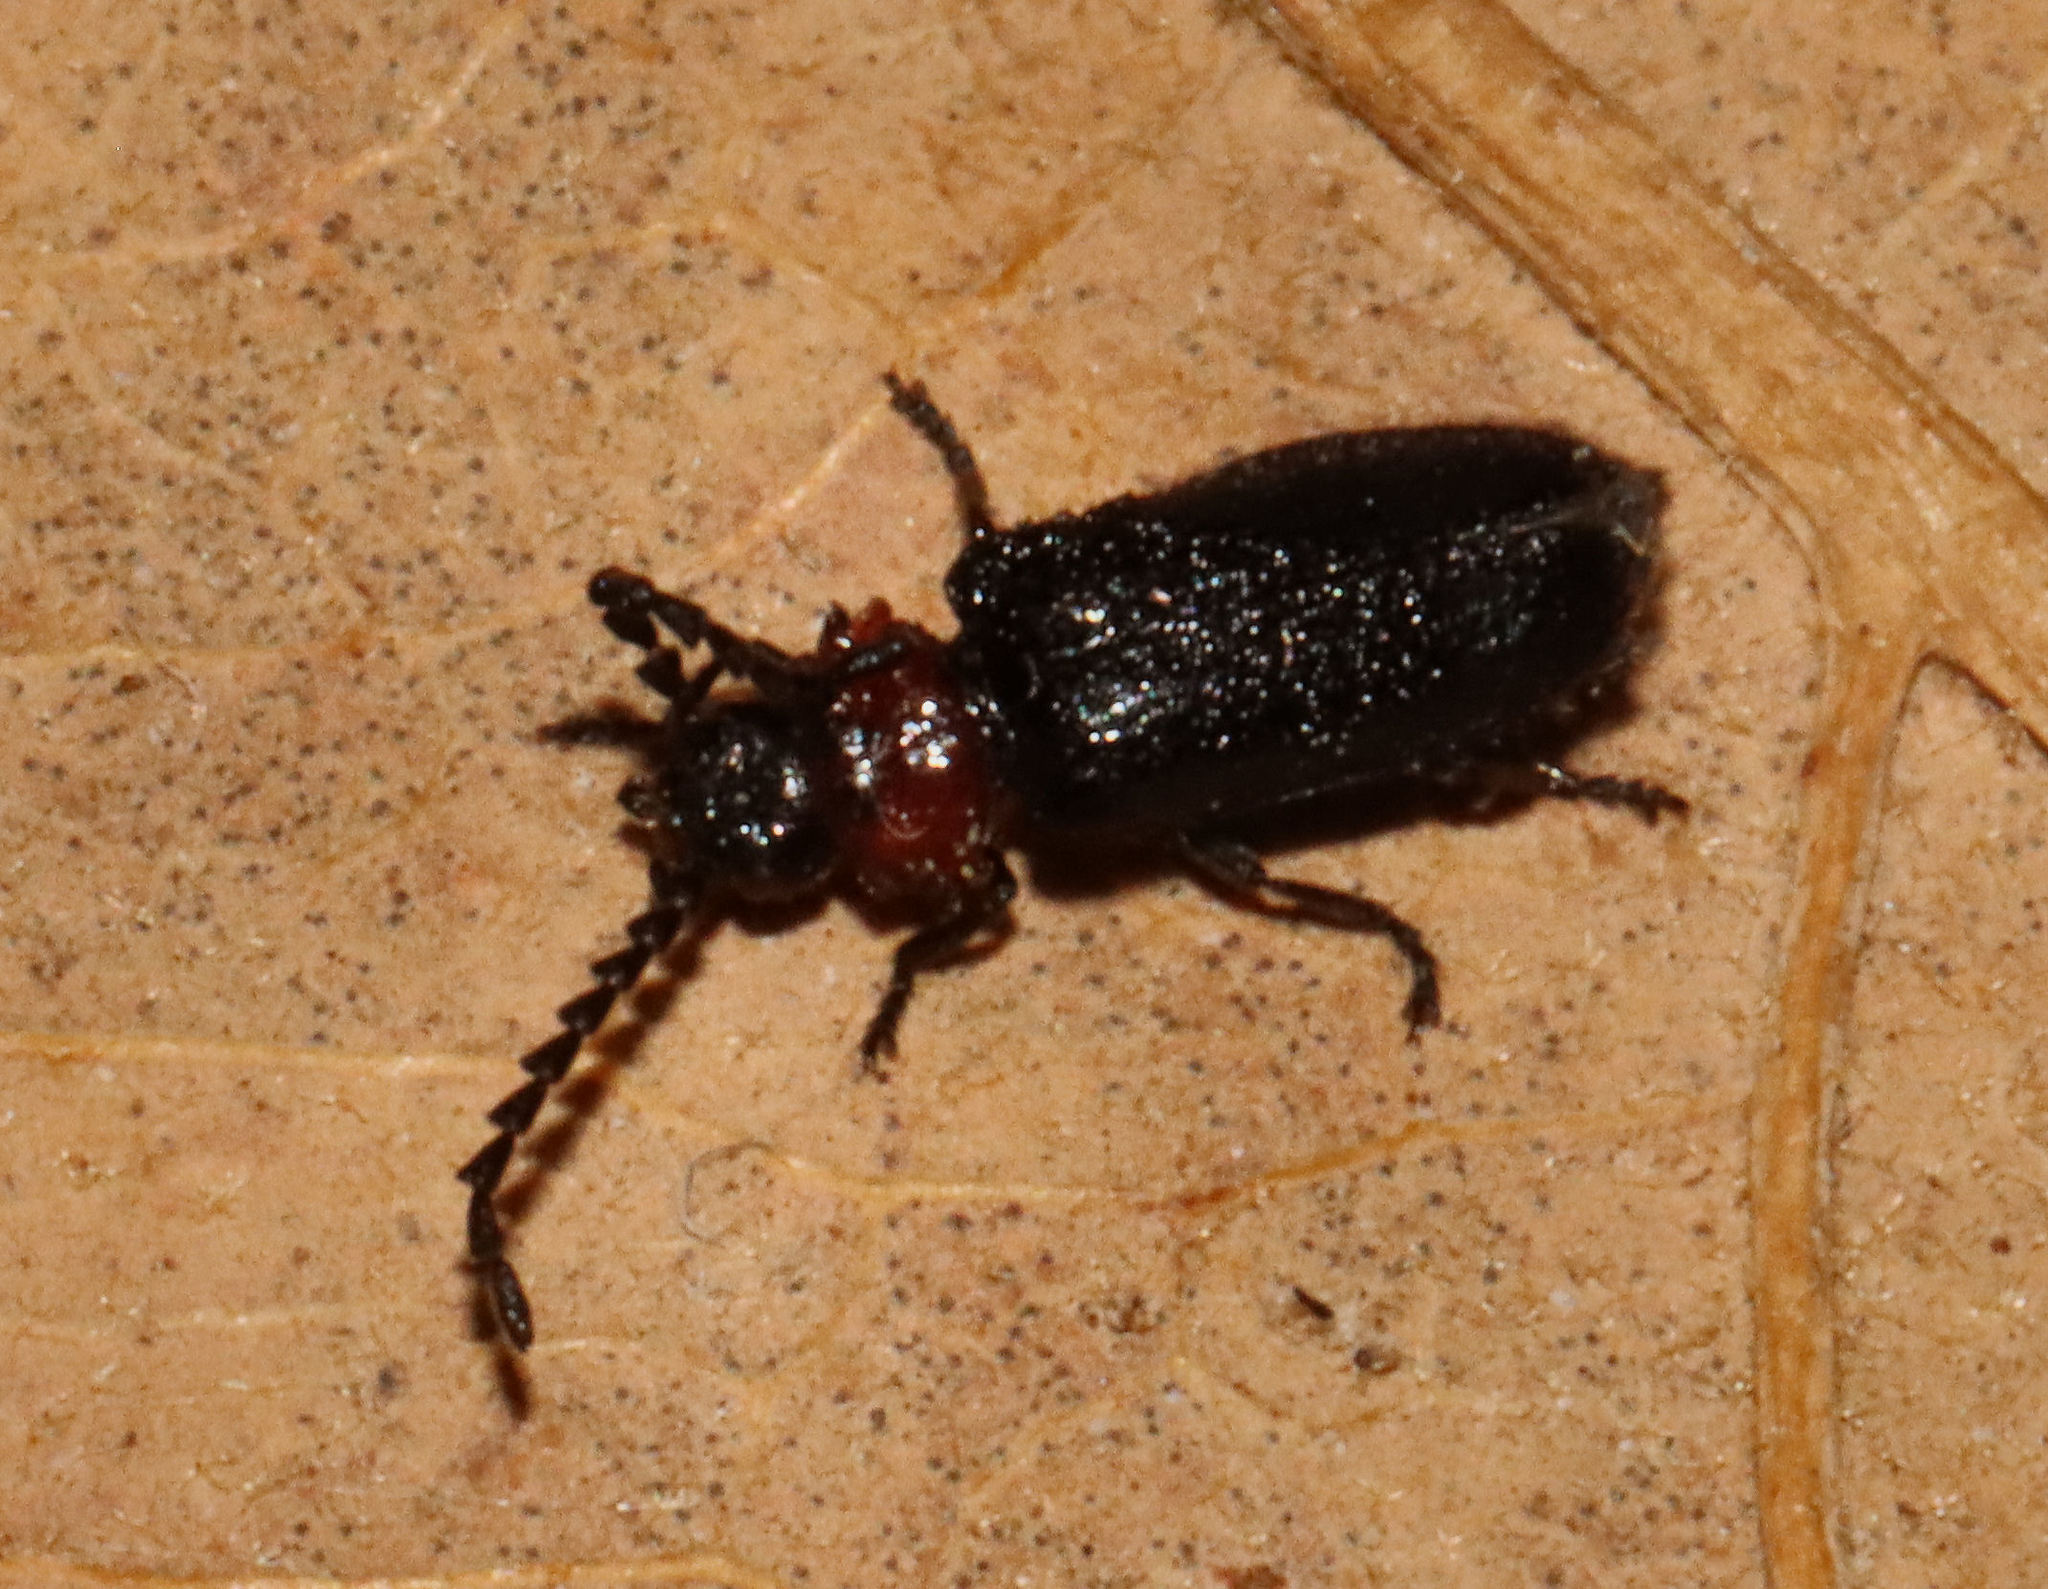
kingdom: Animalia
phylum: Arthropoda
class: Insecta
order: Coleoptera
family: Cantharidae
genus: Ditemnus
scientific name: Ditemnus bidentatus
